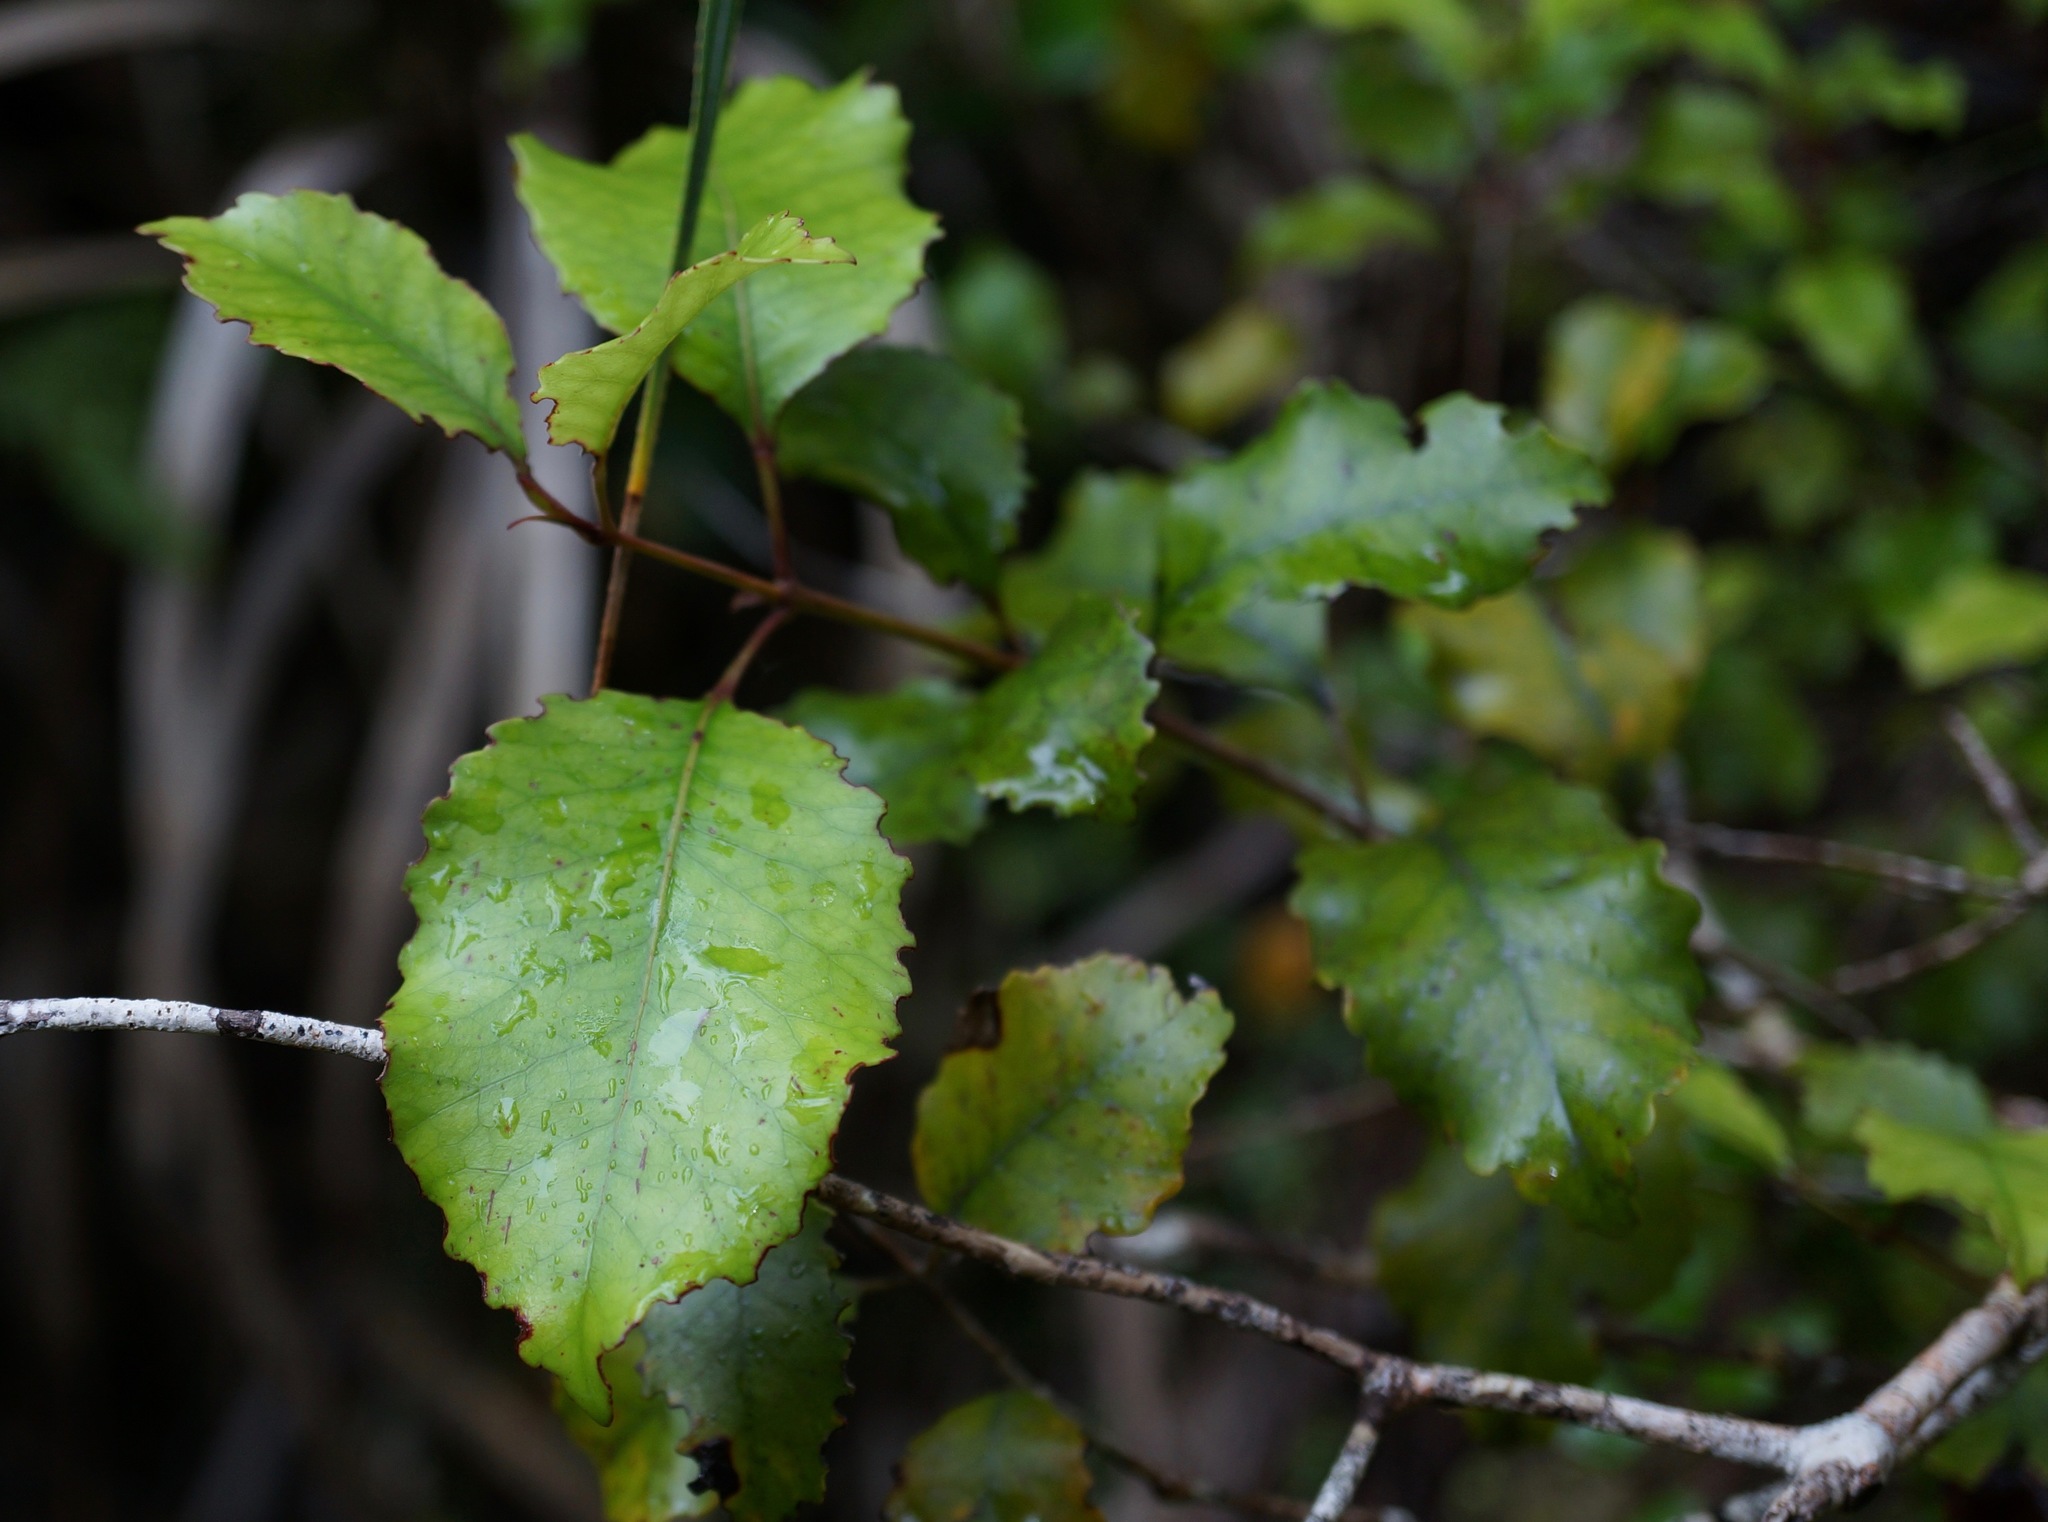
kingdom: Plantae
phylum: Tracheophyta
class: Magnoliopsida
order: Oxalidales
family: Cunoniaceae
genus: Pterophylla
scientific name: Pterophylla racemosa
